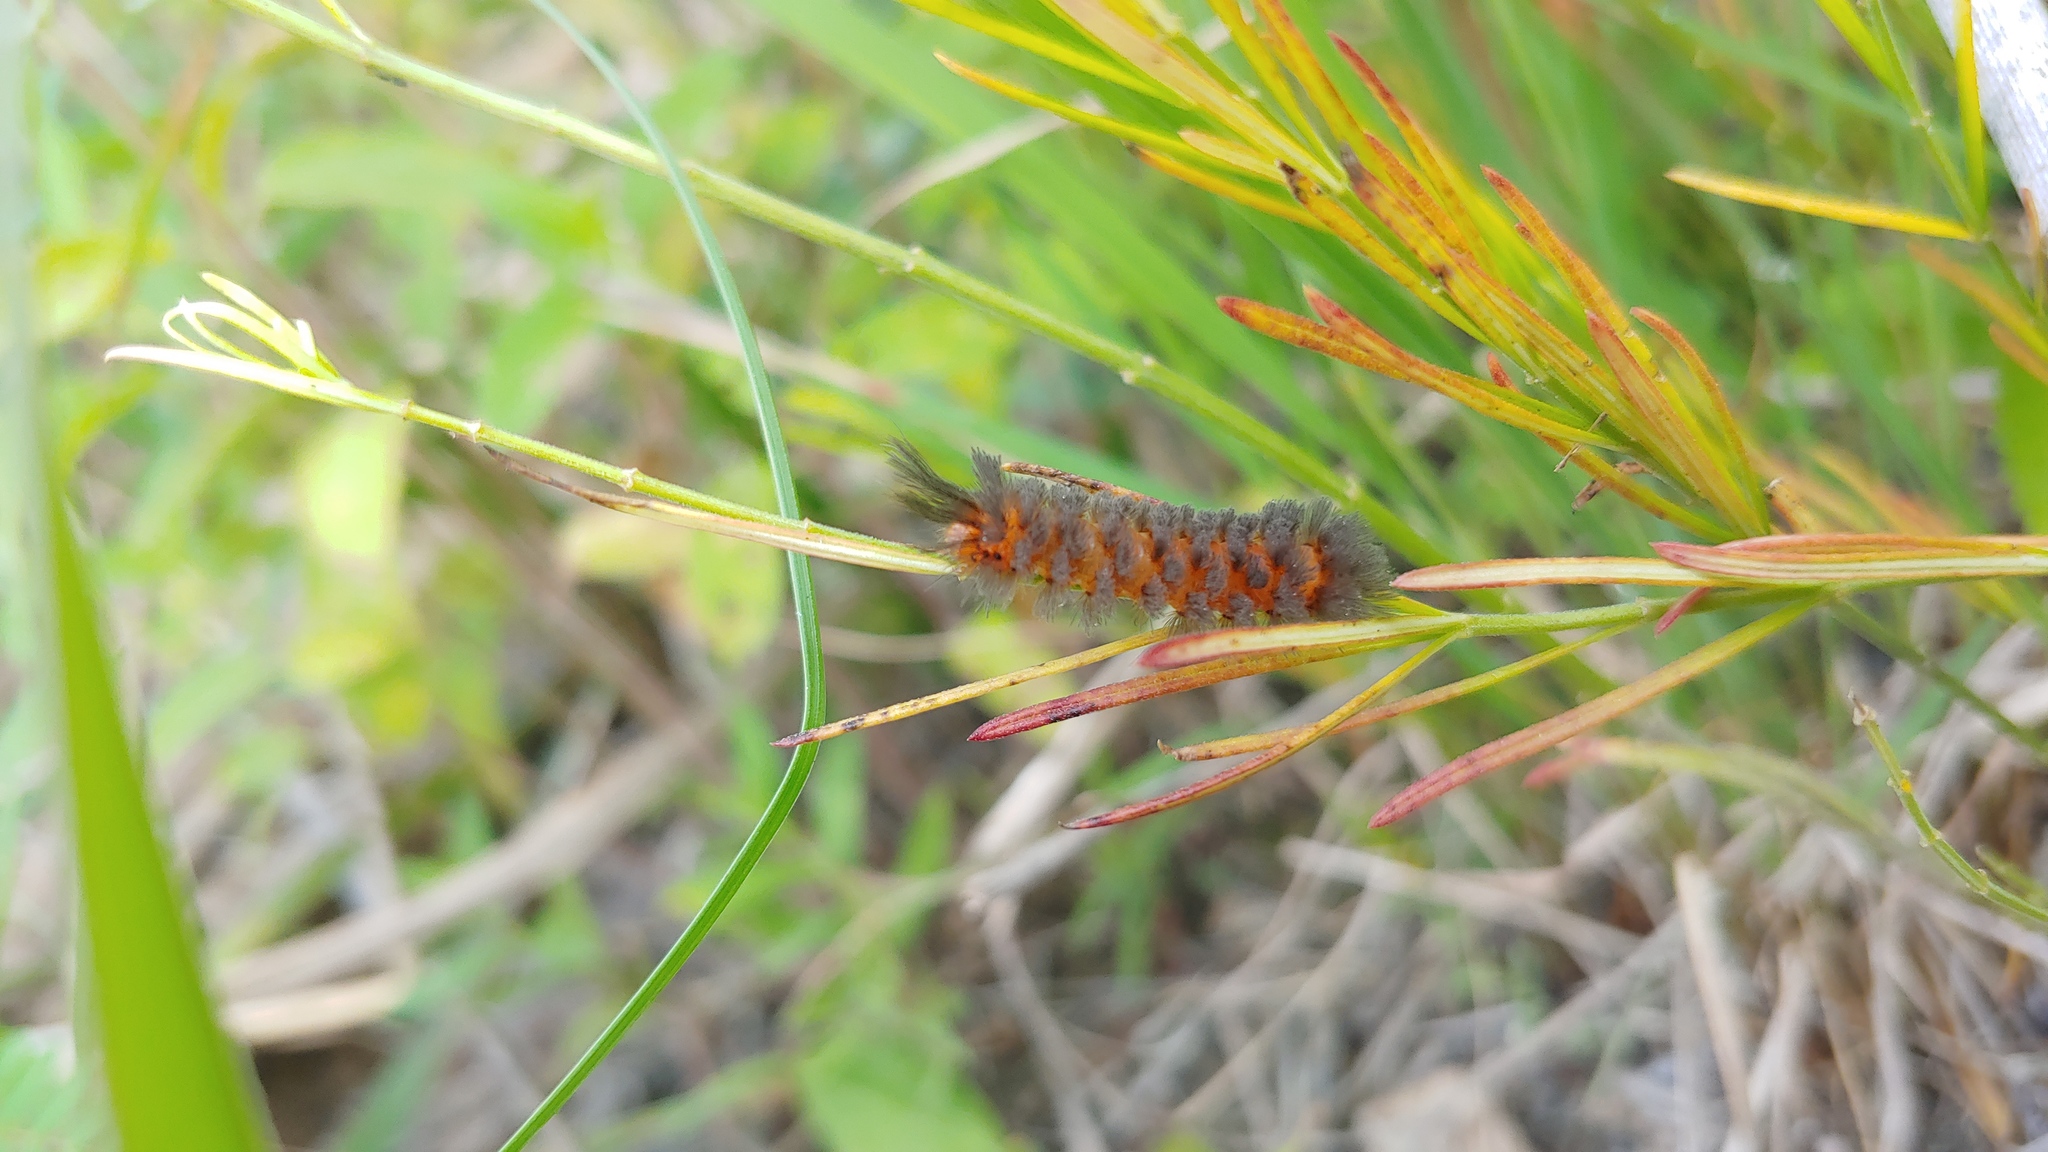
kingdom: Animalia
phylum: Arthropoda
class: Insecta
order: Lepidoptera
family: Erebidae
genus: Cycnia
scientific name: Cycnia collaris
